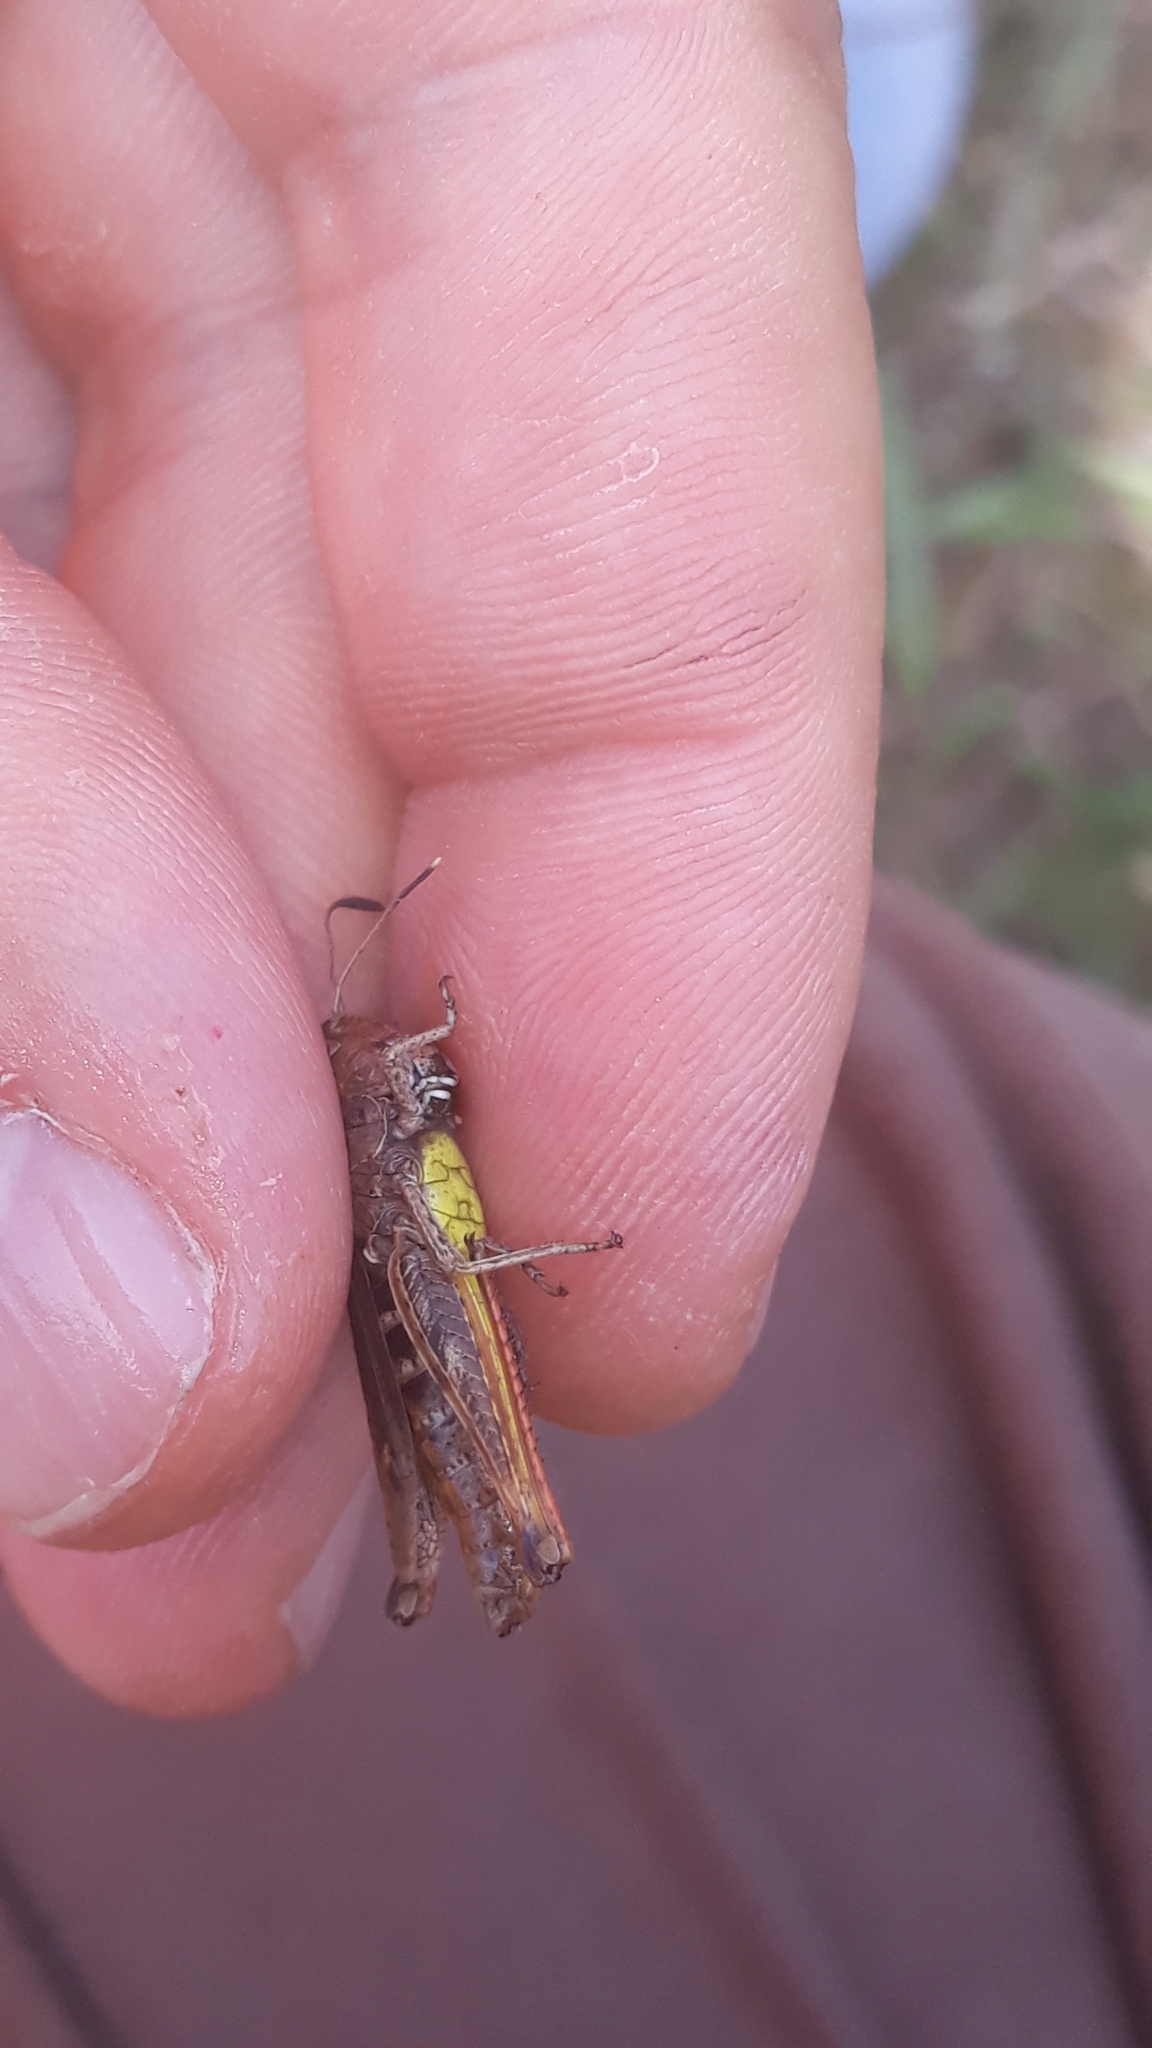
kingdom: Animalia
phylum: Arthropoda
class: Insecta
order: Orthoptera
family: Acrididae
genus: Gomphocerippus
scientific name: Gomphocerippus rufus
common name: Rufous grasshopper
